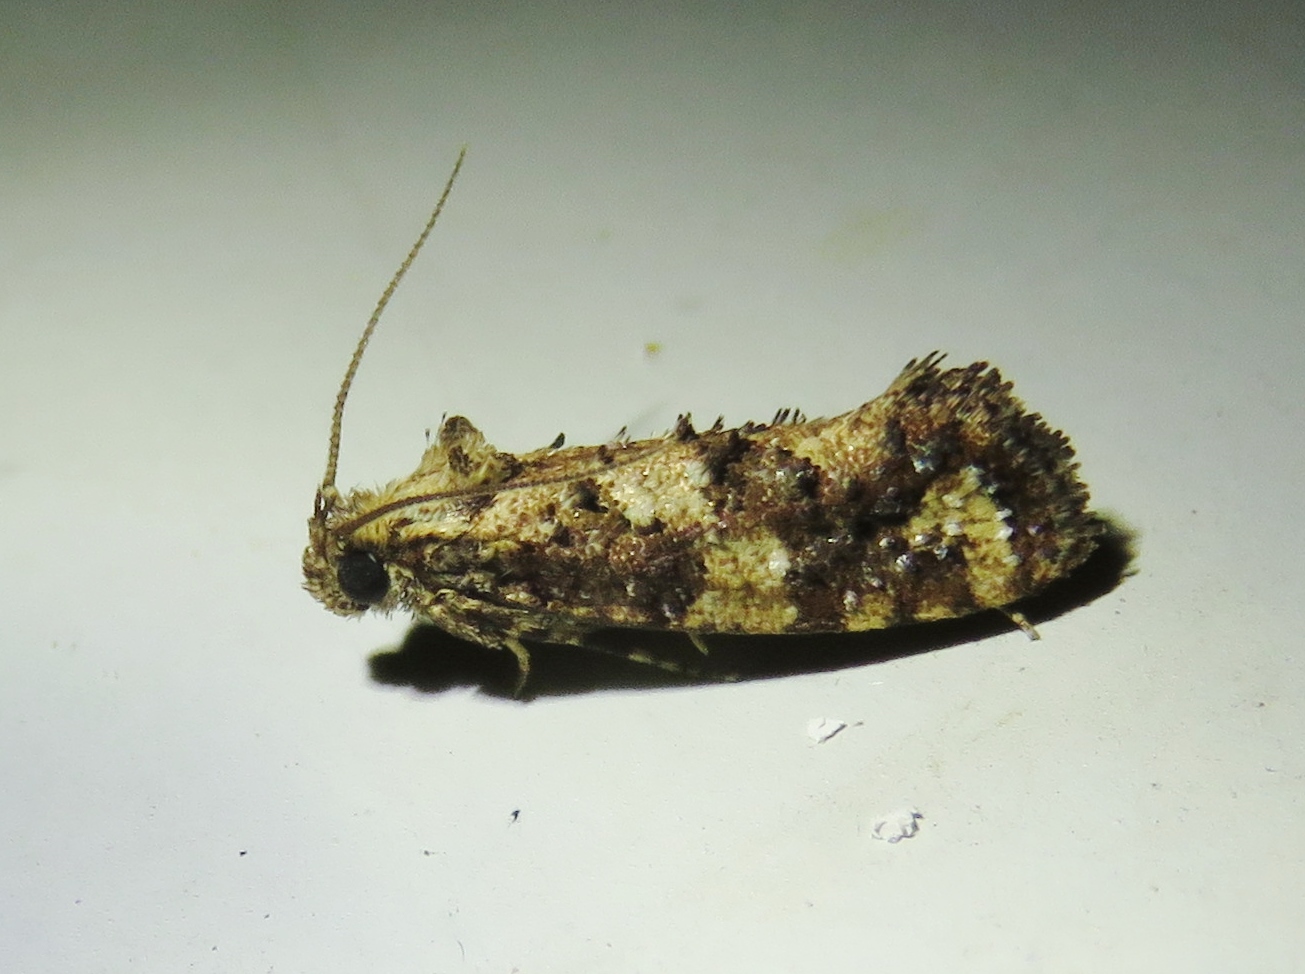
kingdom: Animalia
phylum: Arthropoda
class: Insecta
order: Lepidoptera
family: Tineidae
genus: Acrolophus
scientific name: Acrolophus cressoni
